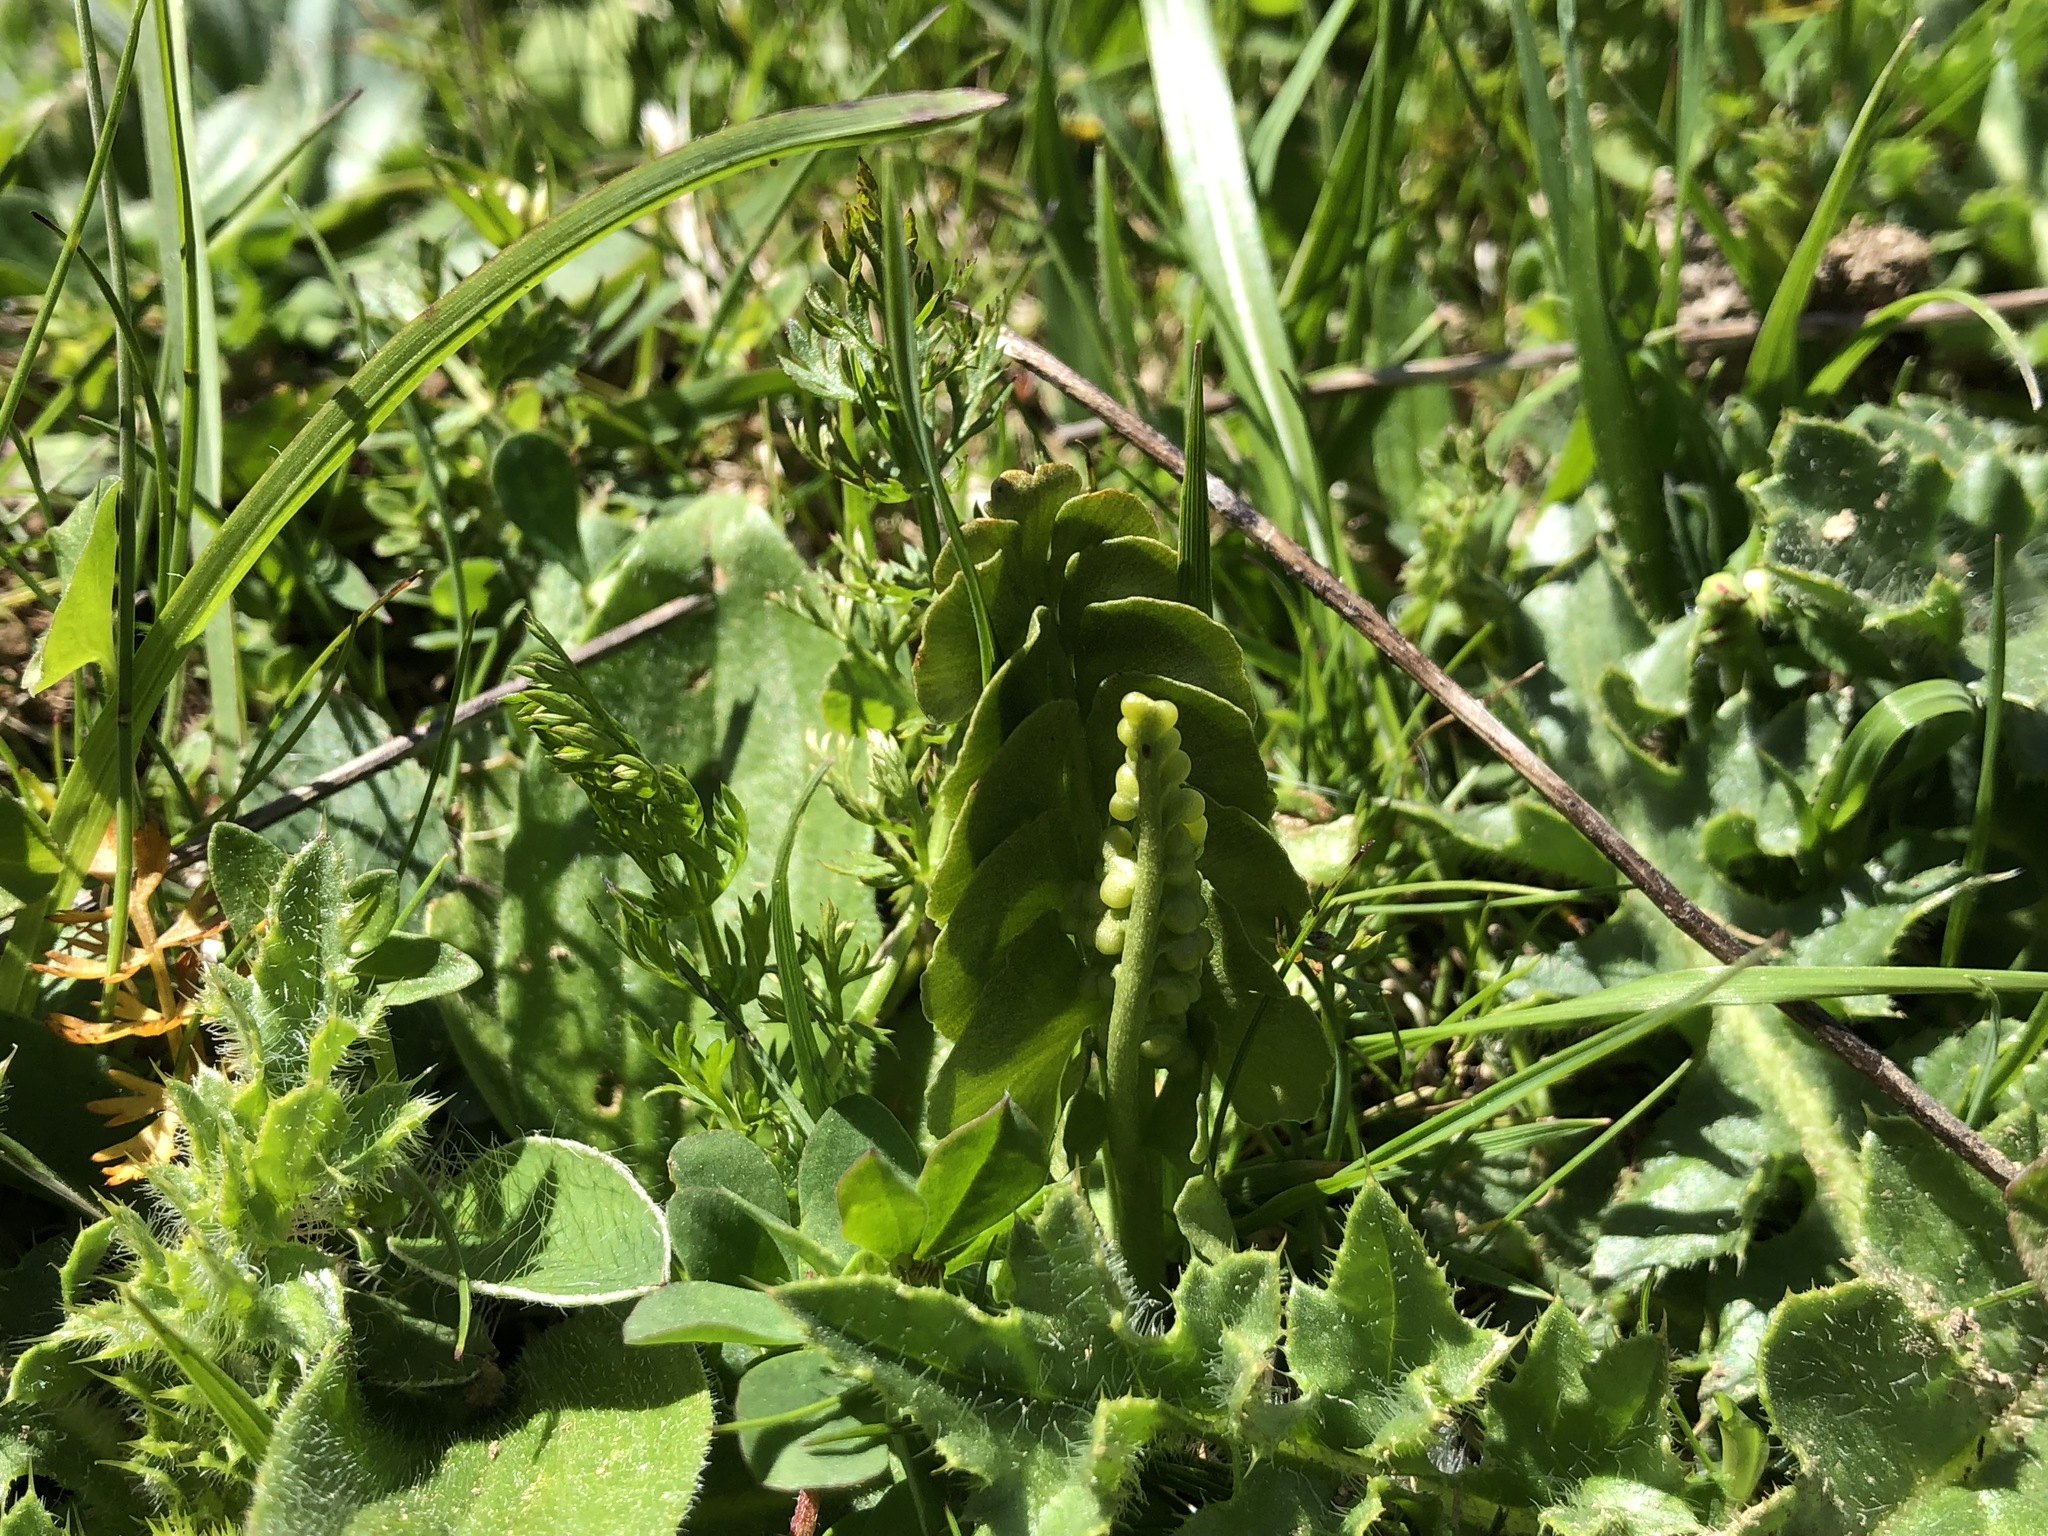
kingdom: Plantae
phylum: Tracheophyta
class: Polypodiopsida
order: Ophioglossales
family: Ophioglossaceae
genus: Botrychium
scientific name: Botrychium lunaria
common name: Moonwort
